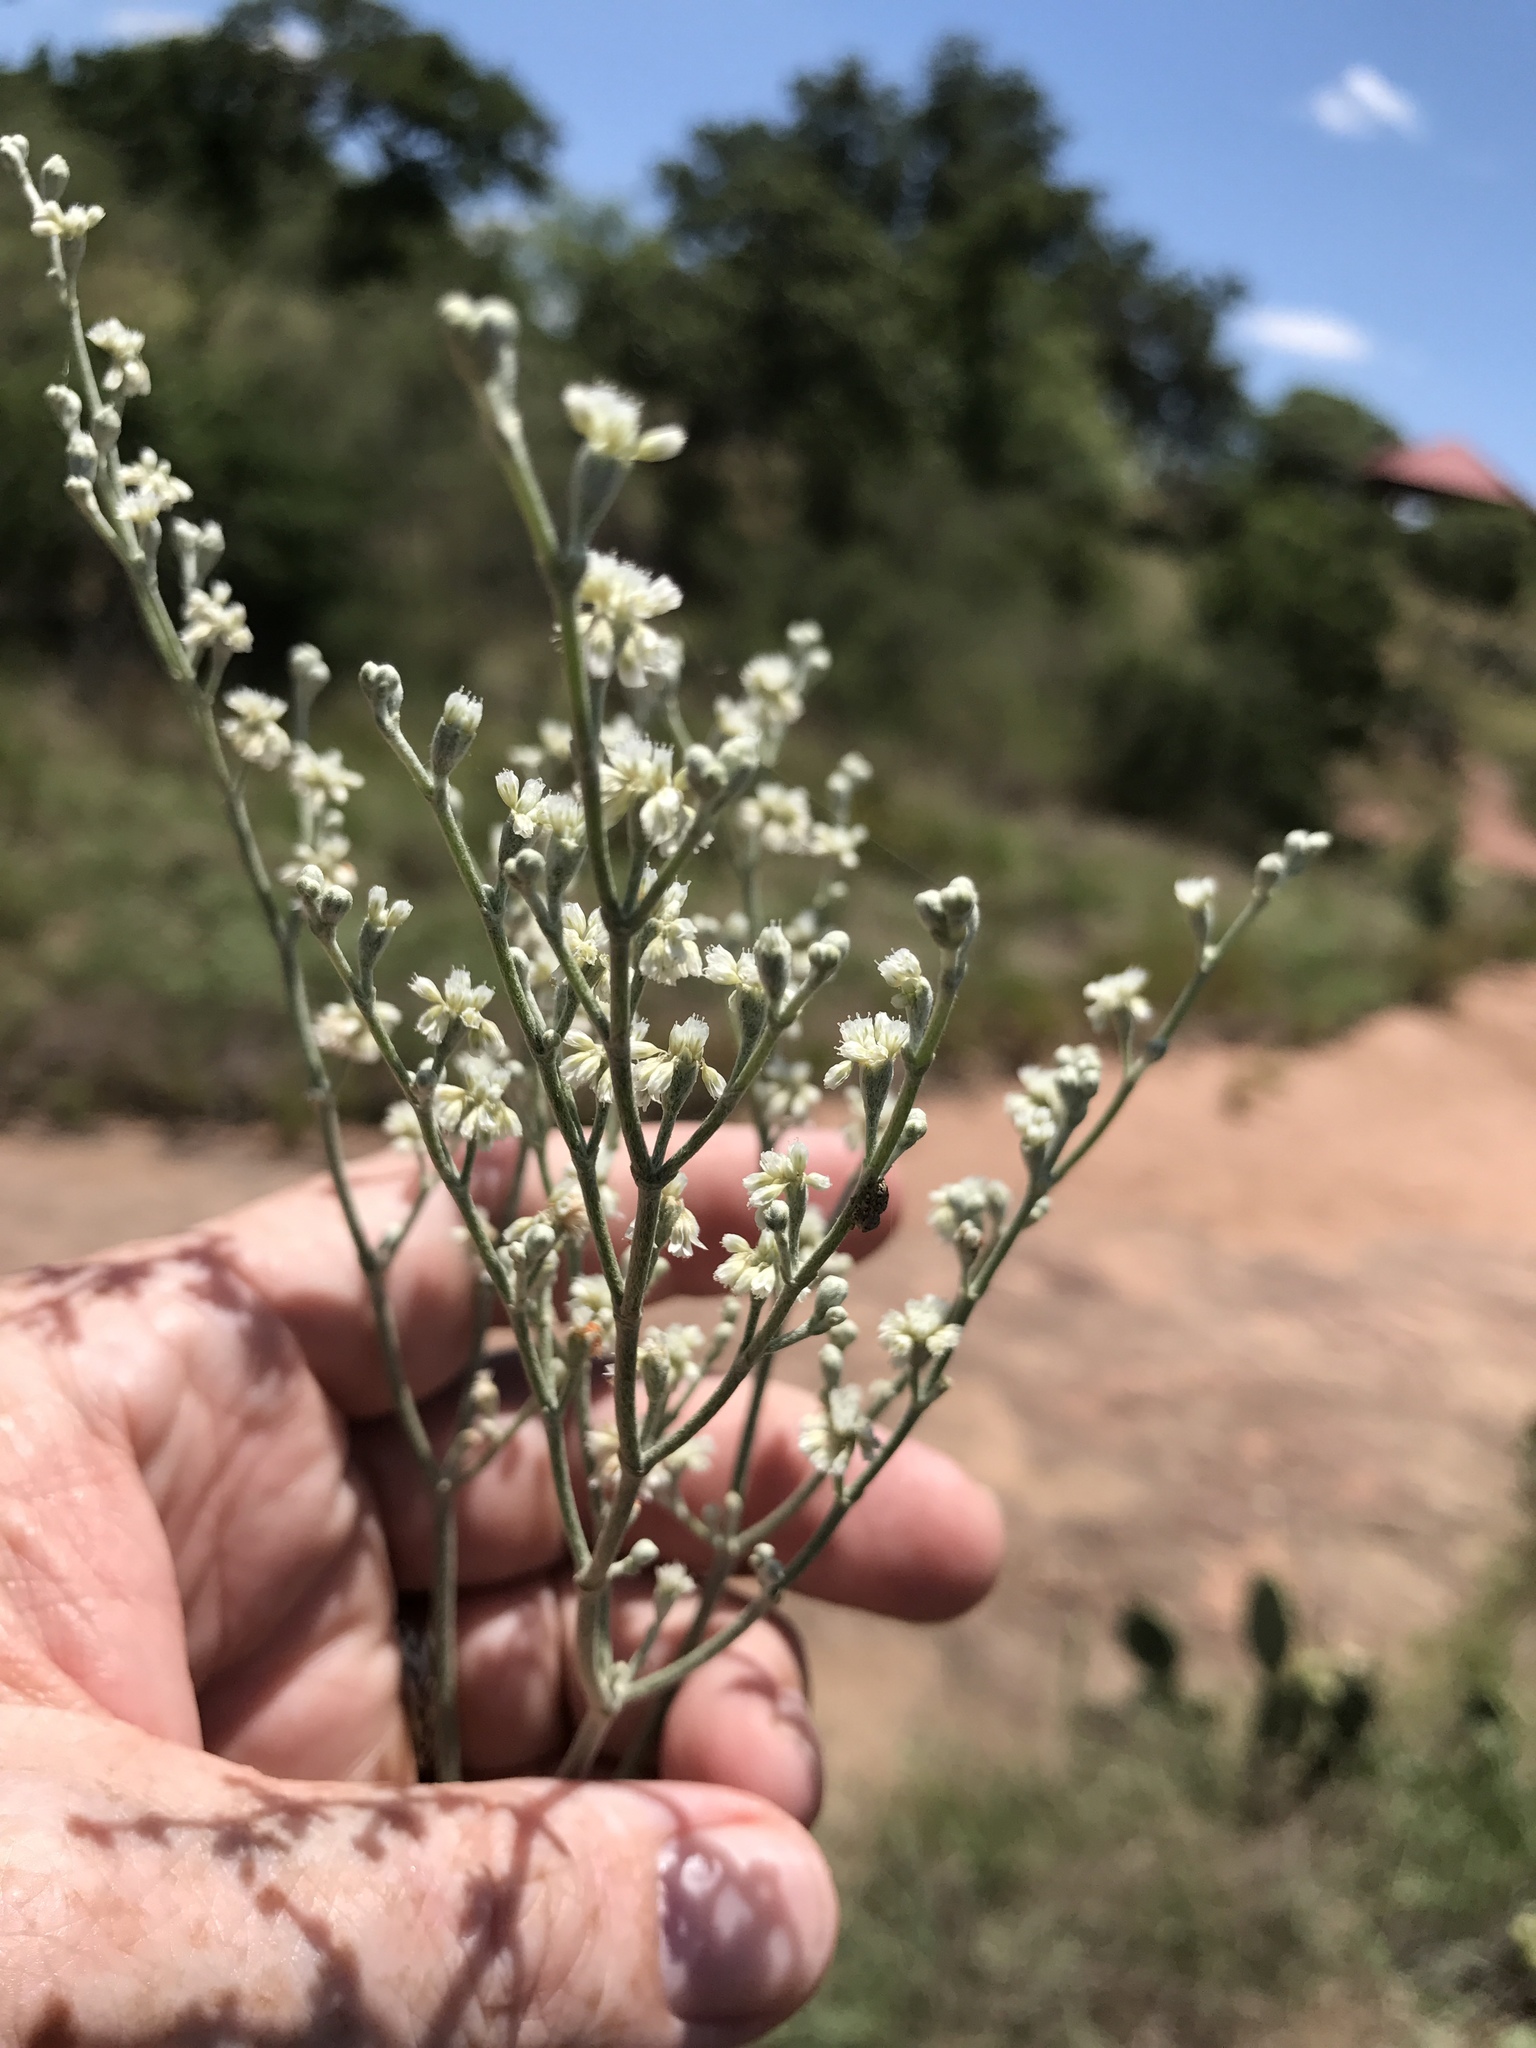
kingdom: Plantae
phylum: Tracheophyta
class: Magnoliopsida
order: Caryophyllales
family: Polygonaceae
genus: Eriogonum
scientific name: Eriogonum annuum
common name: Annual wild buckwheat
